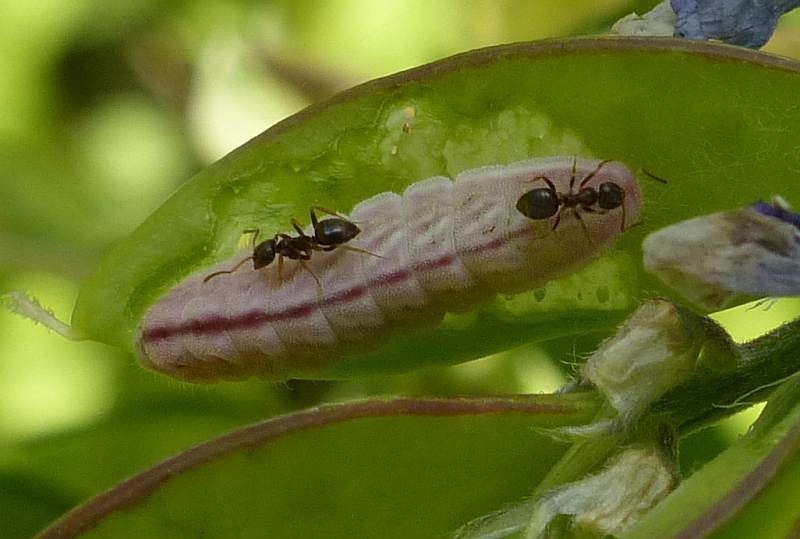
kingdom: Animalia
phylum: Arthropoda
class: Insecta
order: Lepidoptera
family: Lycaenidae
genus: Glaucopsyche
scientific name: Glaucopsyche lygdamus
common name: Silvery blue
